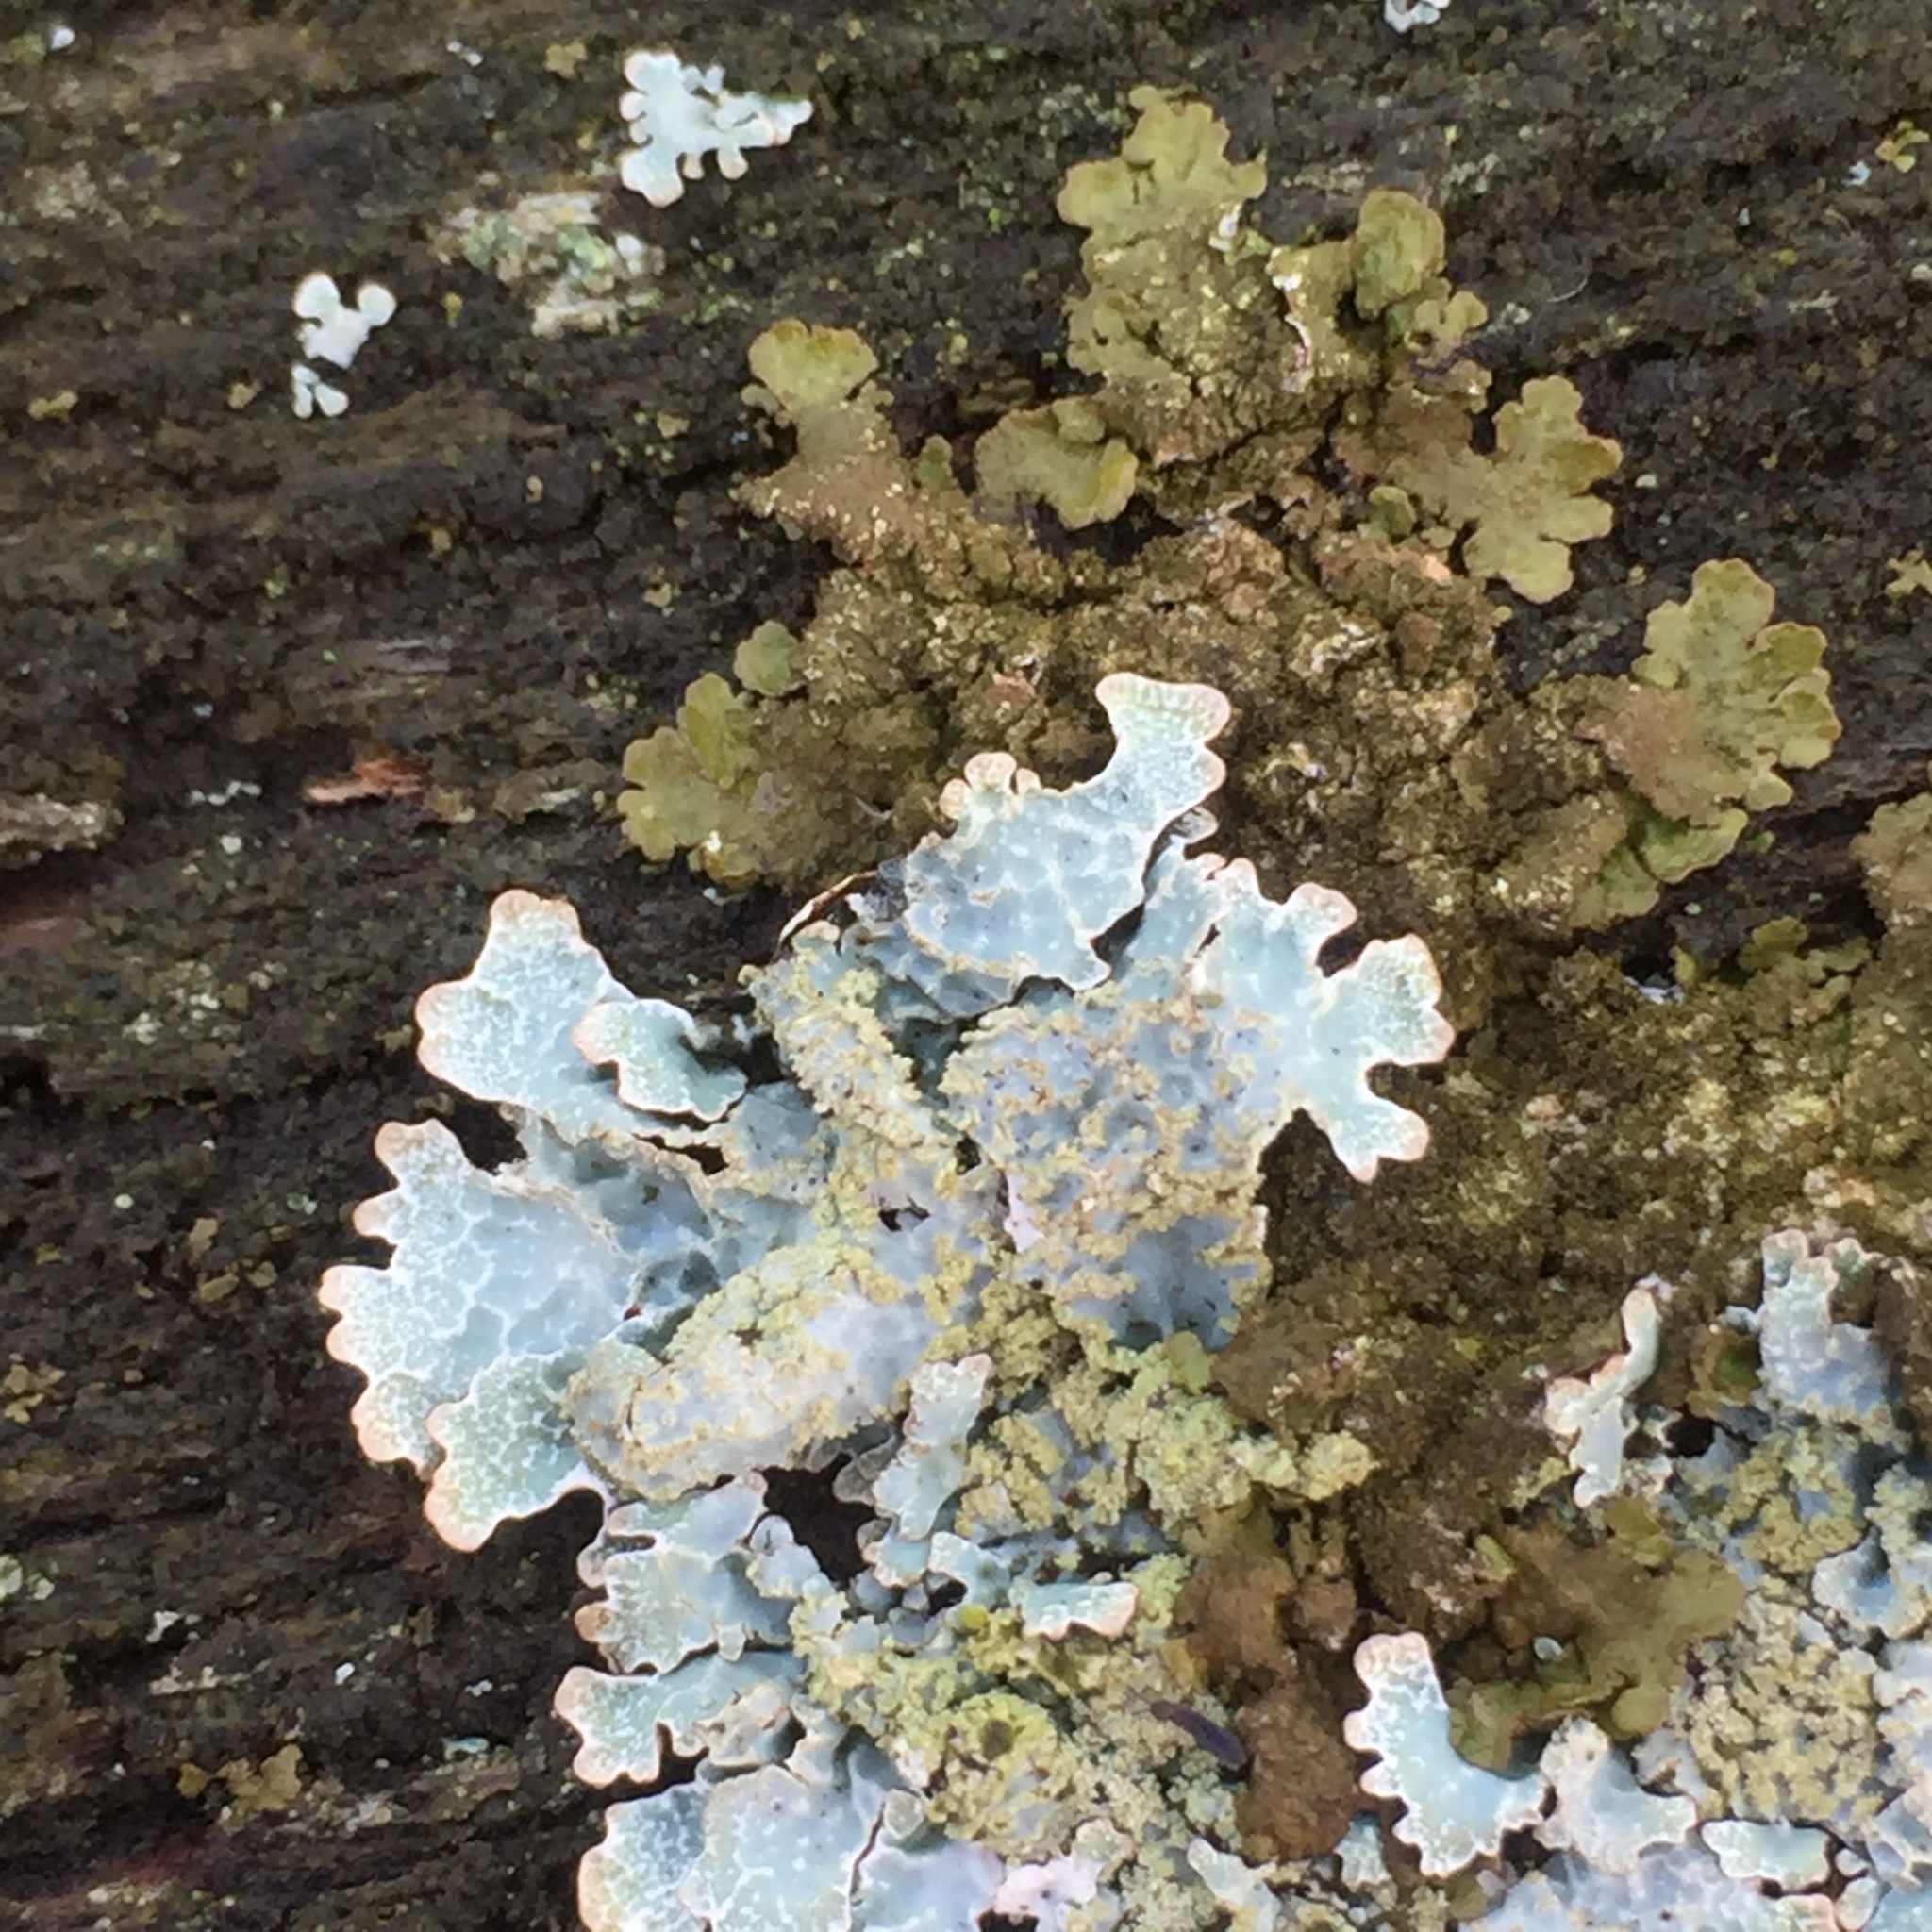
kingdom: Fungi
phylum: Ascomycota
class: Lecanoromycetes
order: Lecanorales
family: Parmeliaceae
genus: Parmelia
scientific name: Parmelia sulcata
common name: Netted shield lichen
